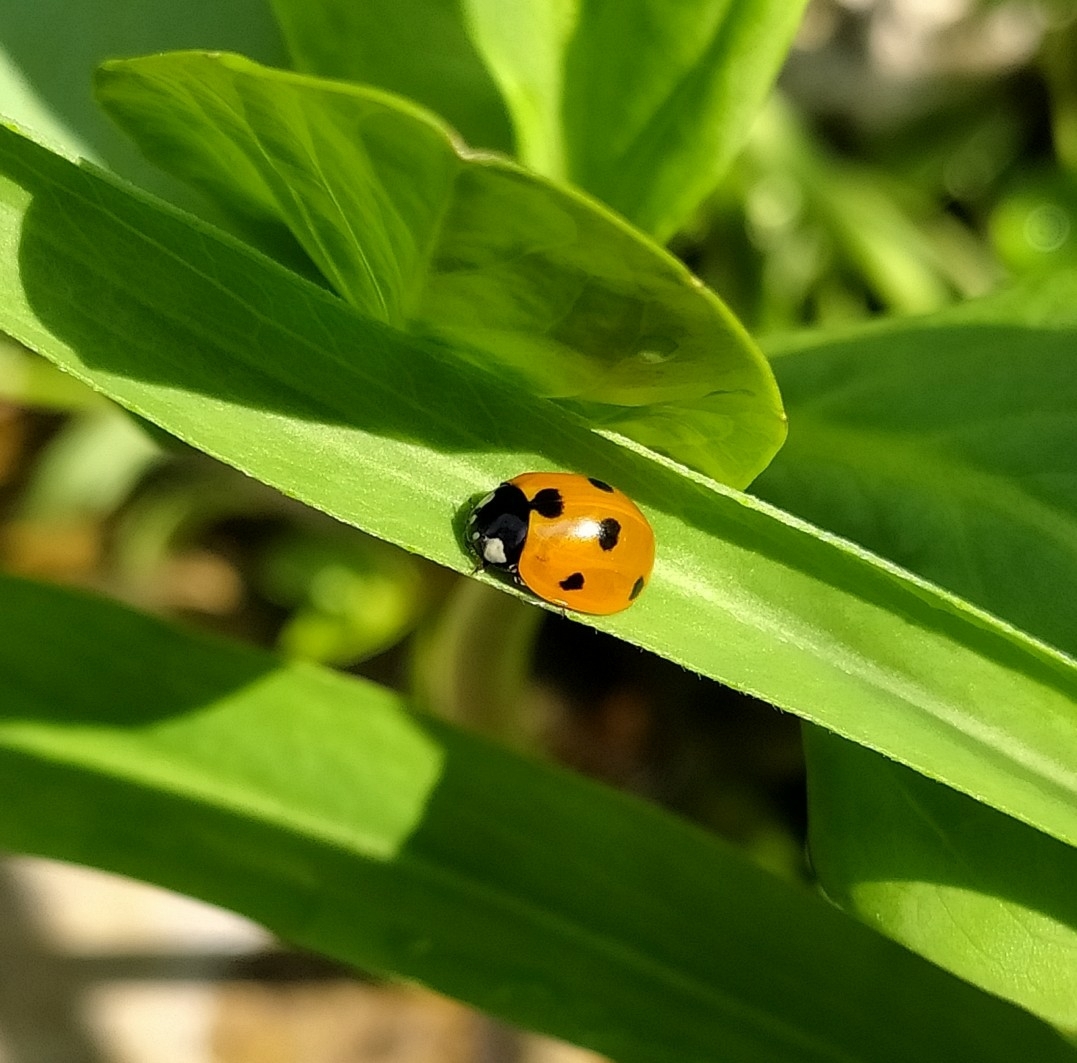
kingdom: Animalia
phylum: Arthropoda
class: Insecta
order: Coleoptera
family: Coccinellidae
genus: Coccinella
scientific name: Coccinella septempunctata
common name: Sevenspotted lady beetle
